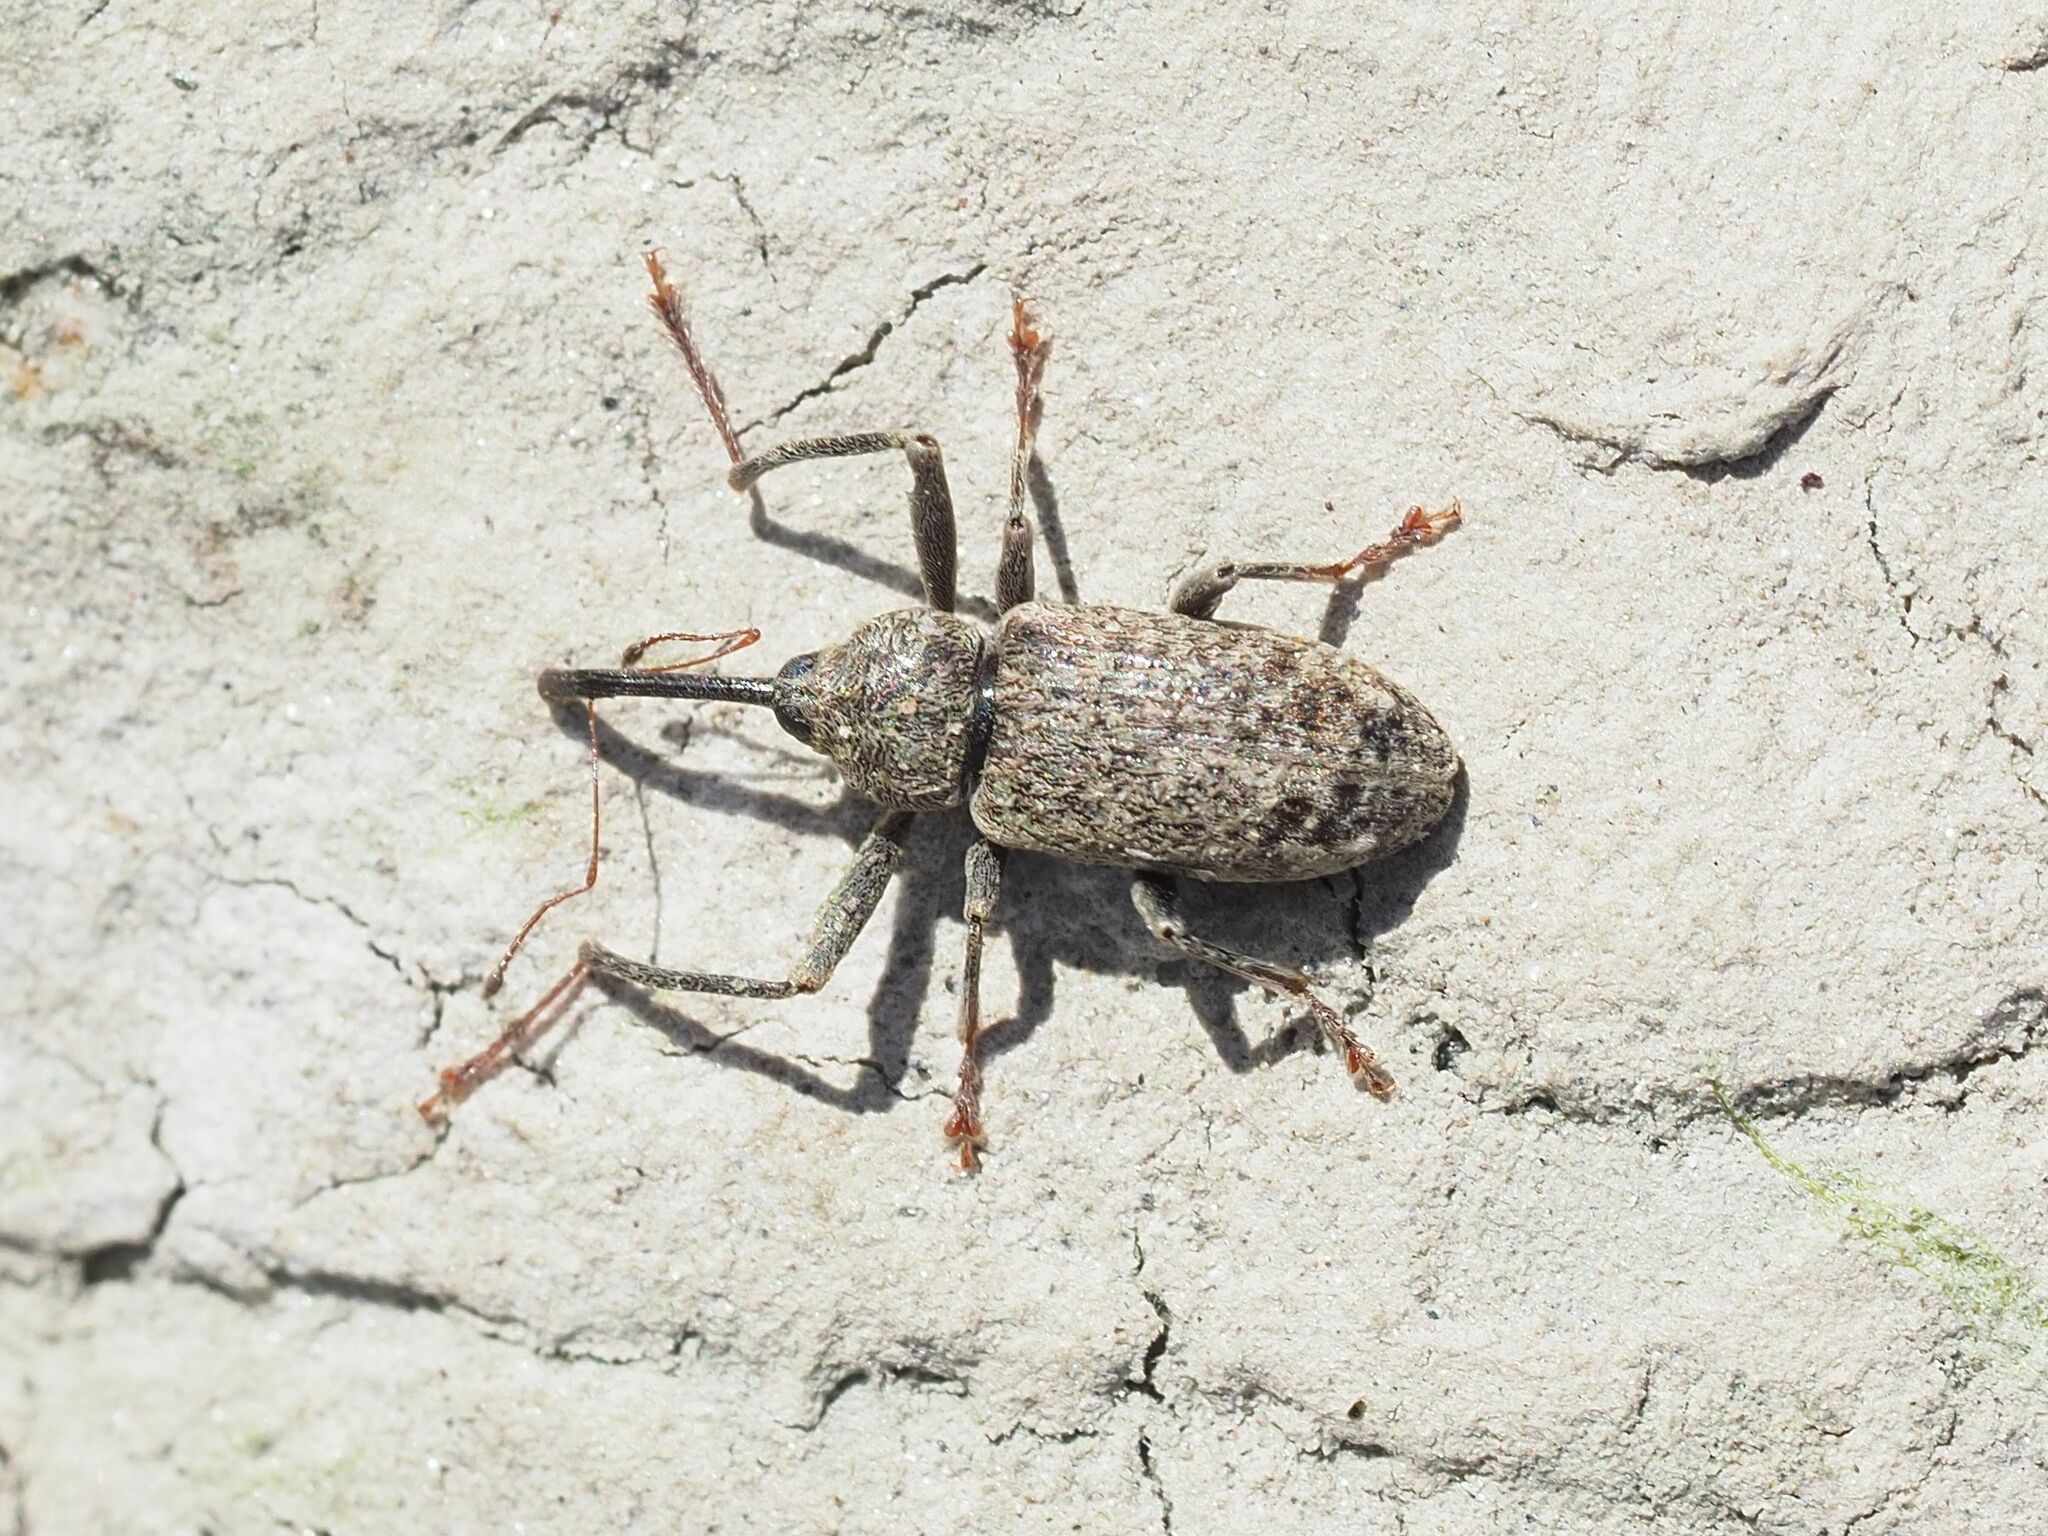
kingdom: Animalia
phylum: Arthropoda
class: Insecta
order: Coleoptera
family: Curculionidae
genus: Dorytomus
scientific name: Dorytomus longimanus
